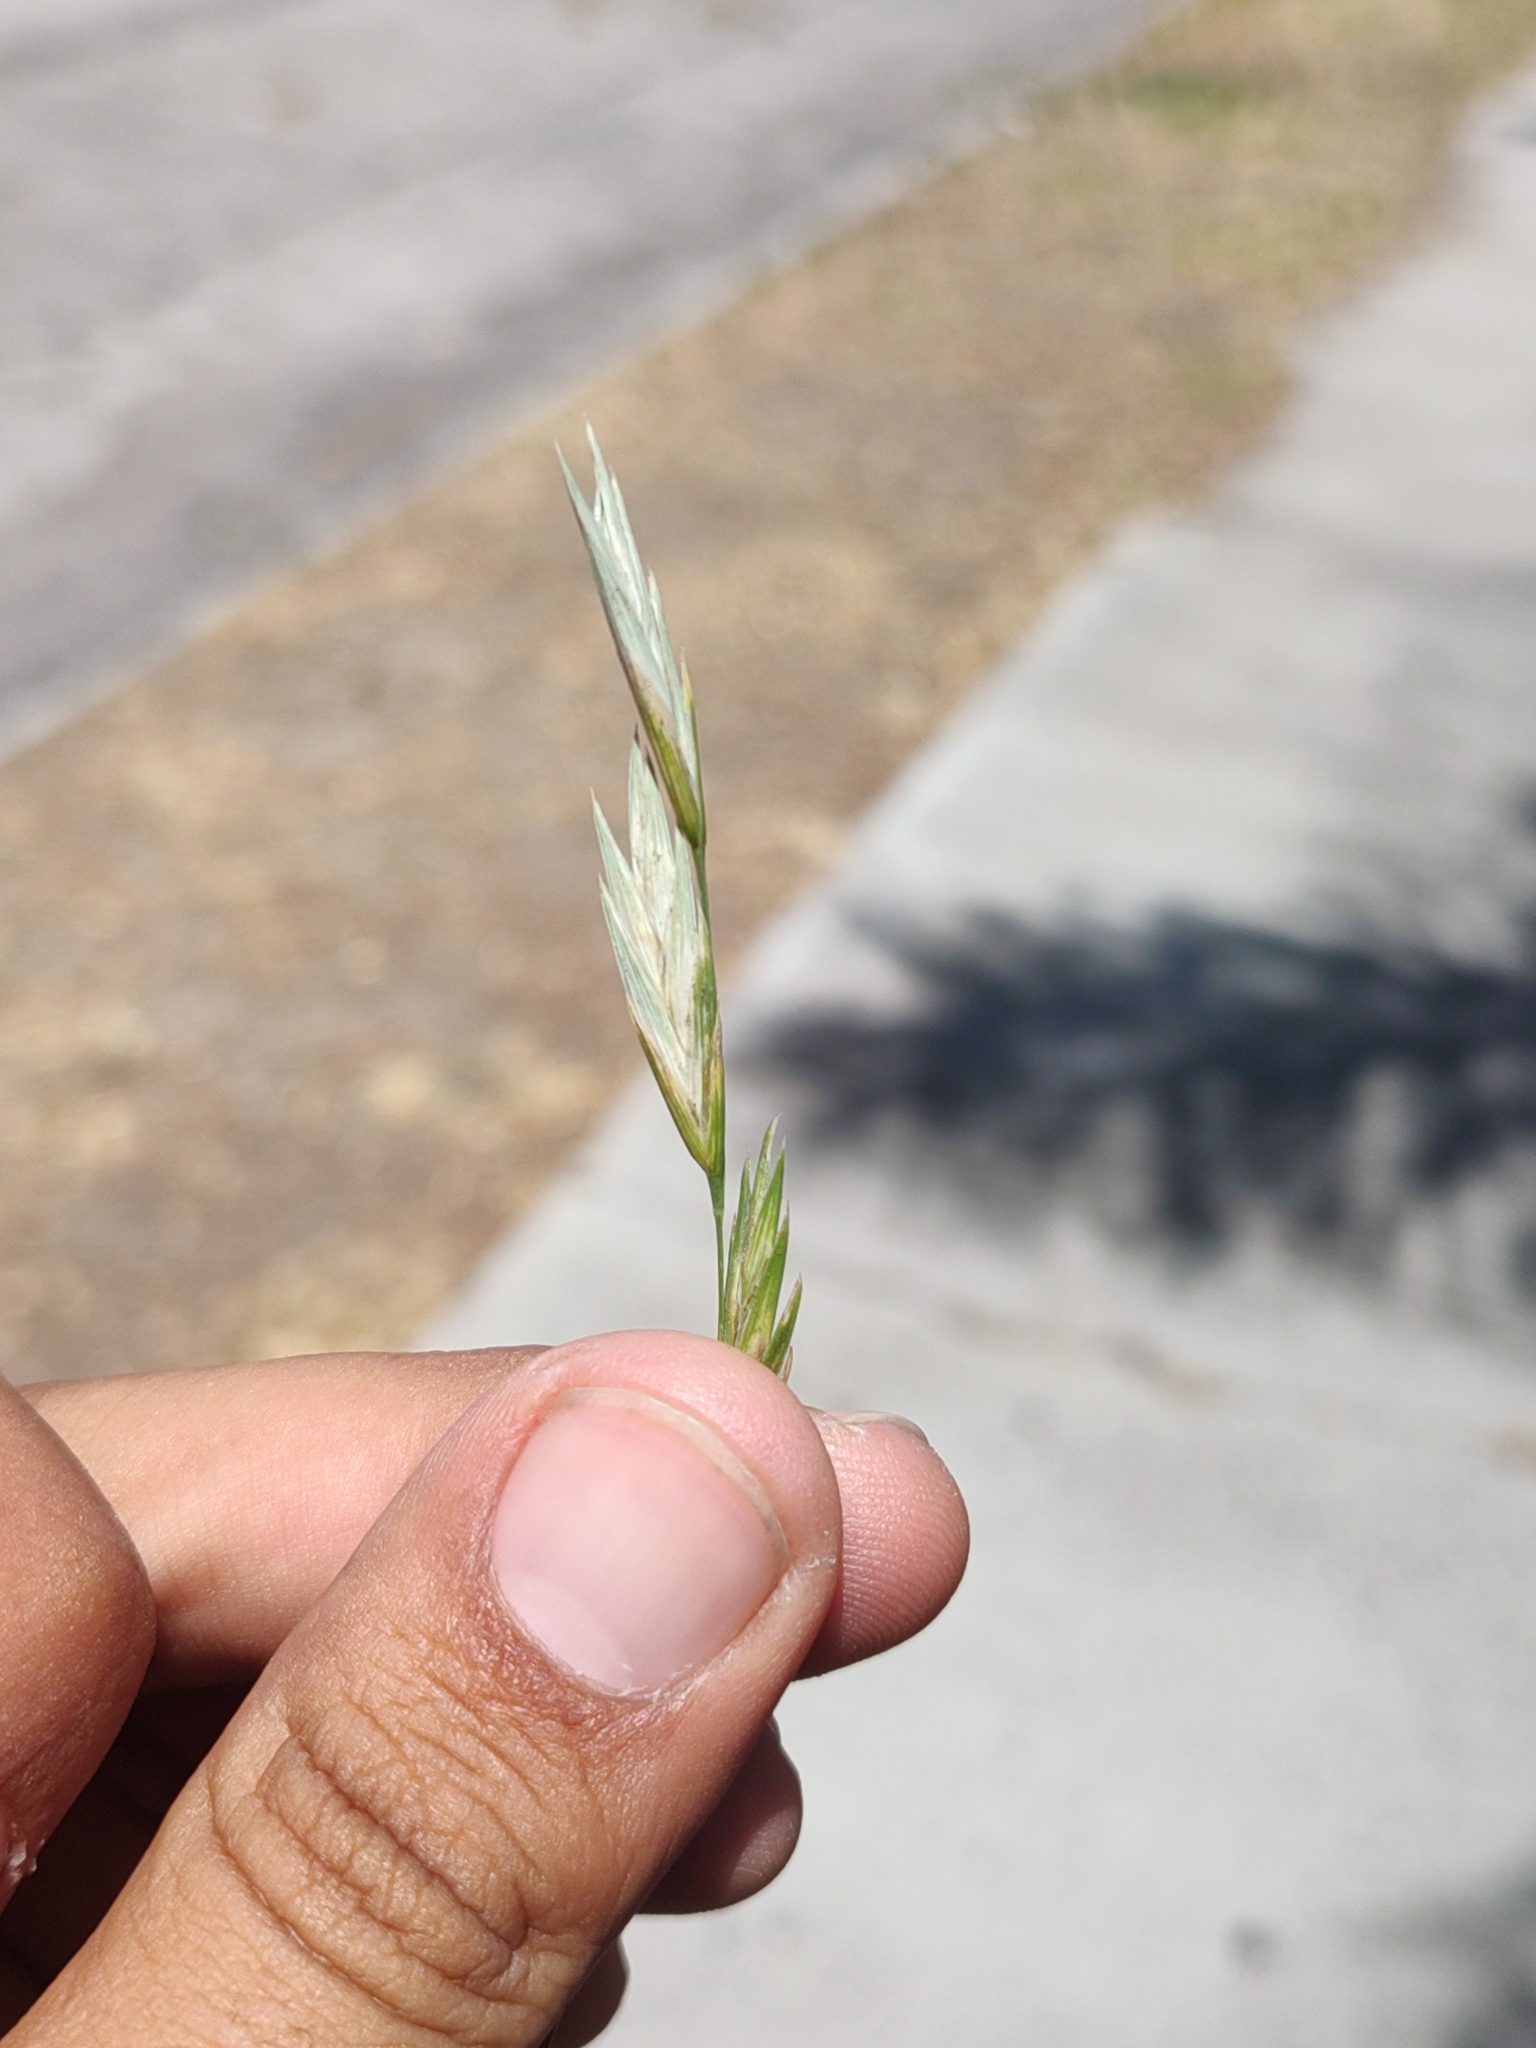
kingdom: Plantae
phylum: Tracheophyta
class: Liliopsida
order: Poales
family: Poaceae
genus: Bromus
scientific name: Bromus catharticus
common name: Rescuegrass
